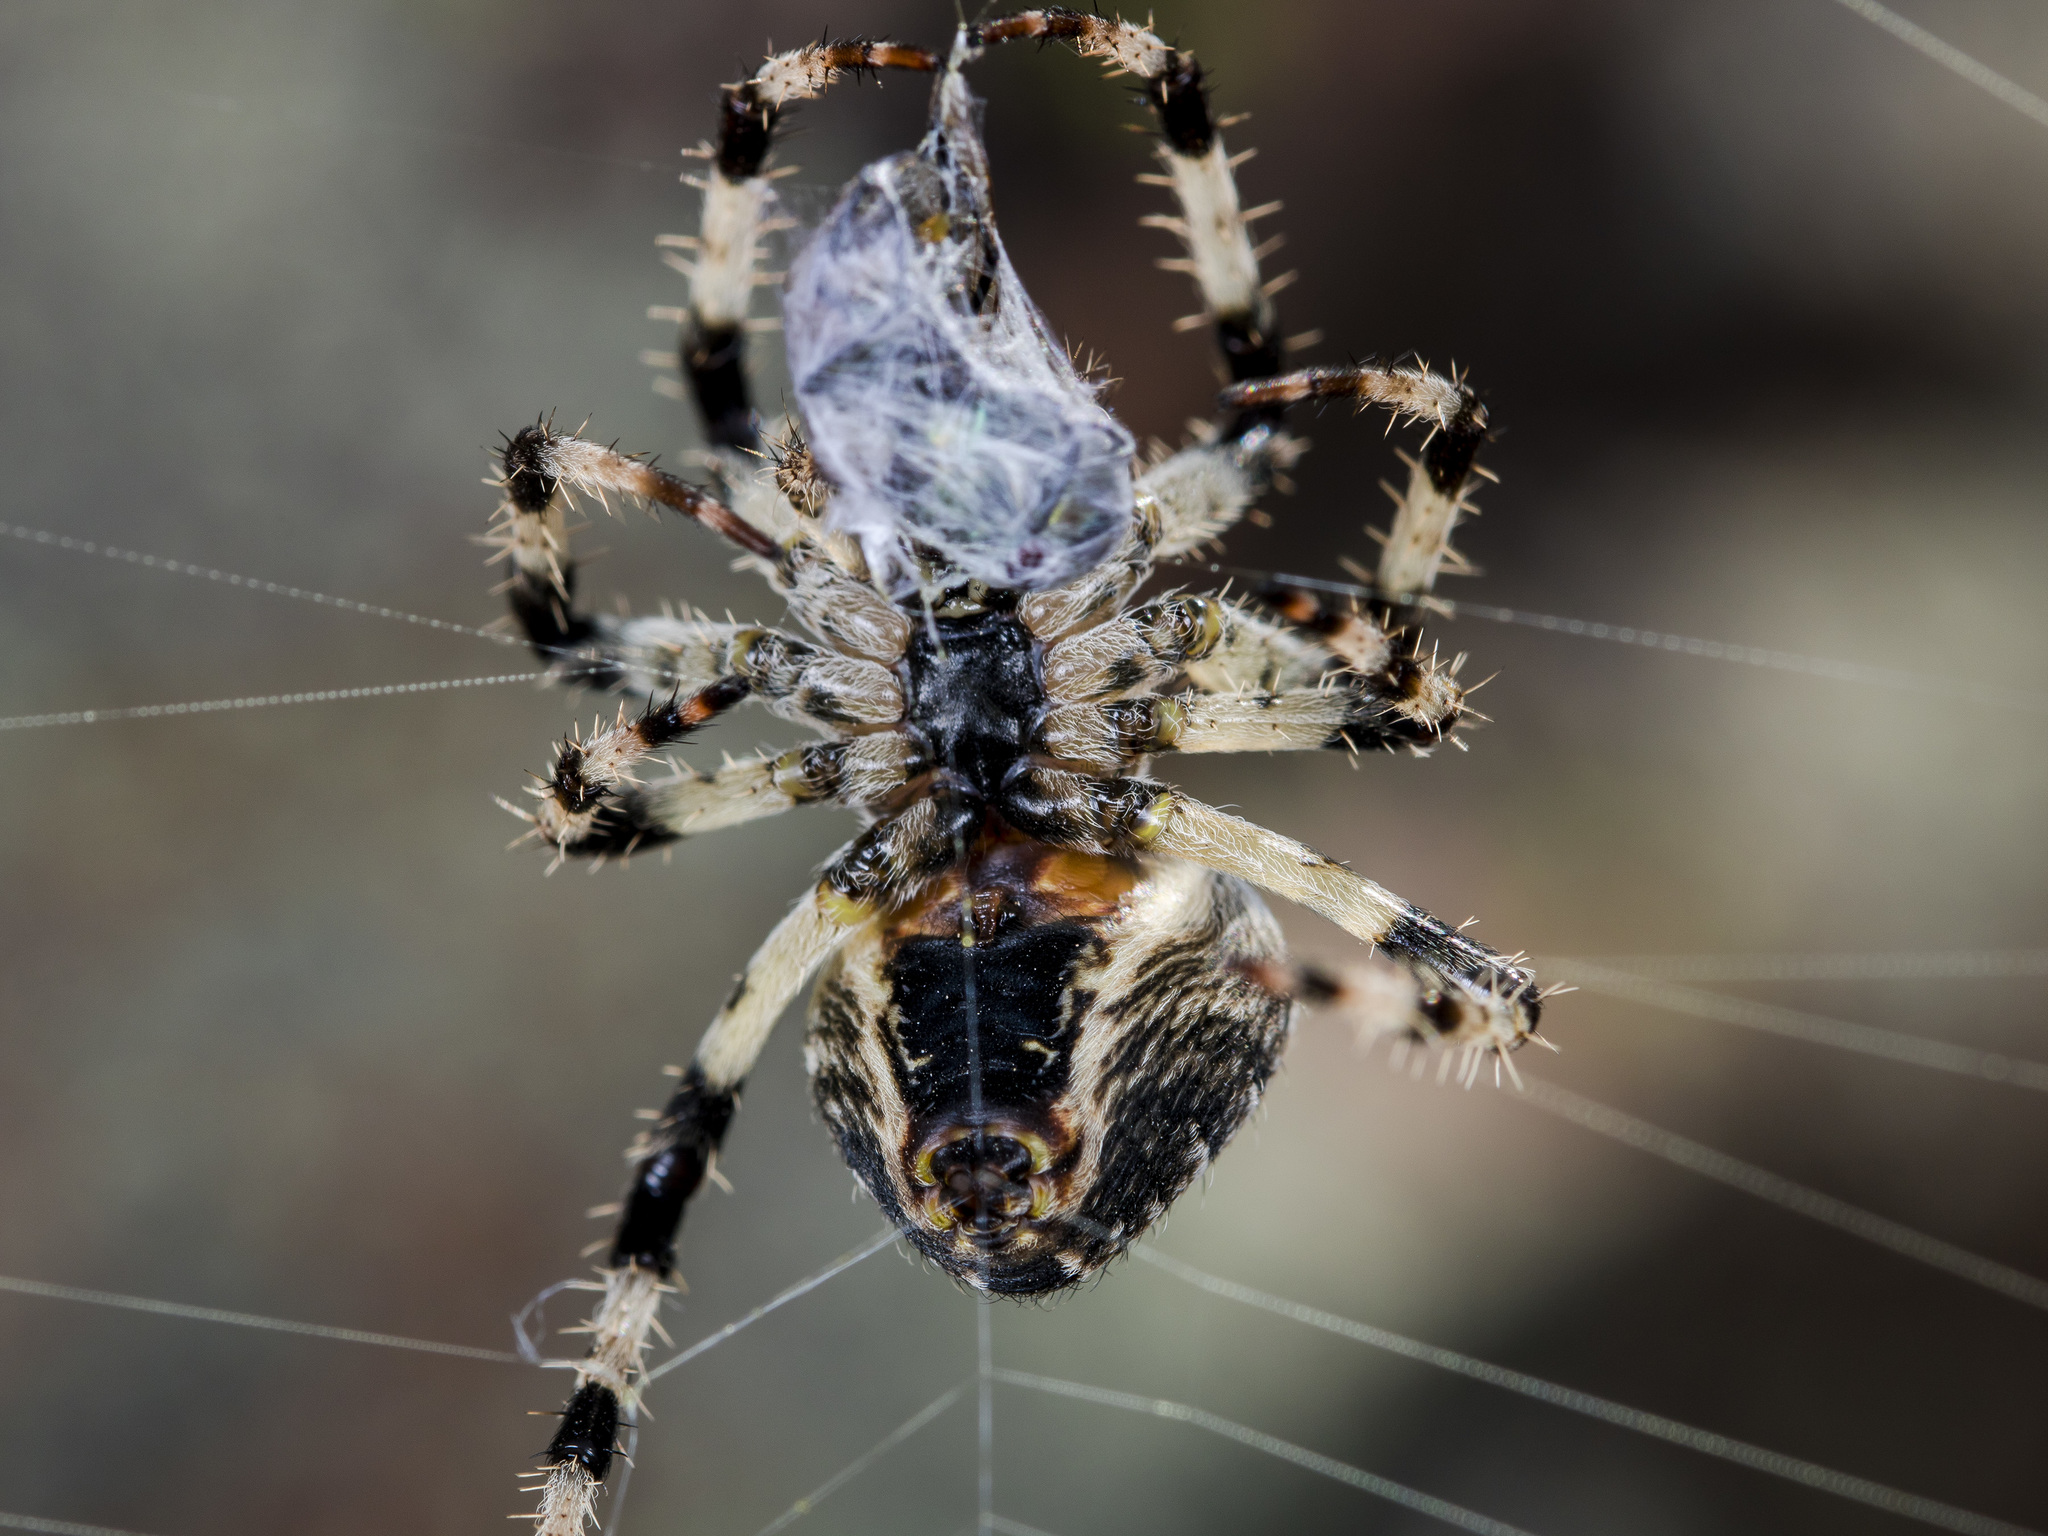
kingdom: Animalia
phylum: Arthropoda
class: Arachnida
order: Araneae
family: Araneidae
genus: Araneus
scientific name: Araneus tartaricus
